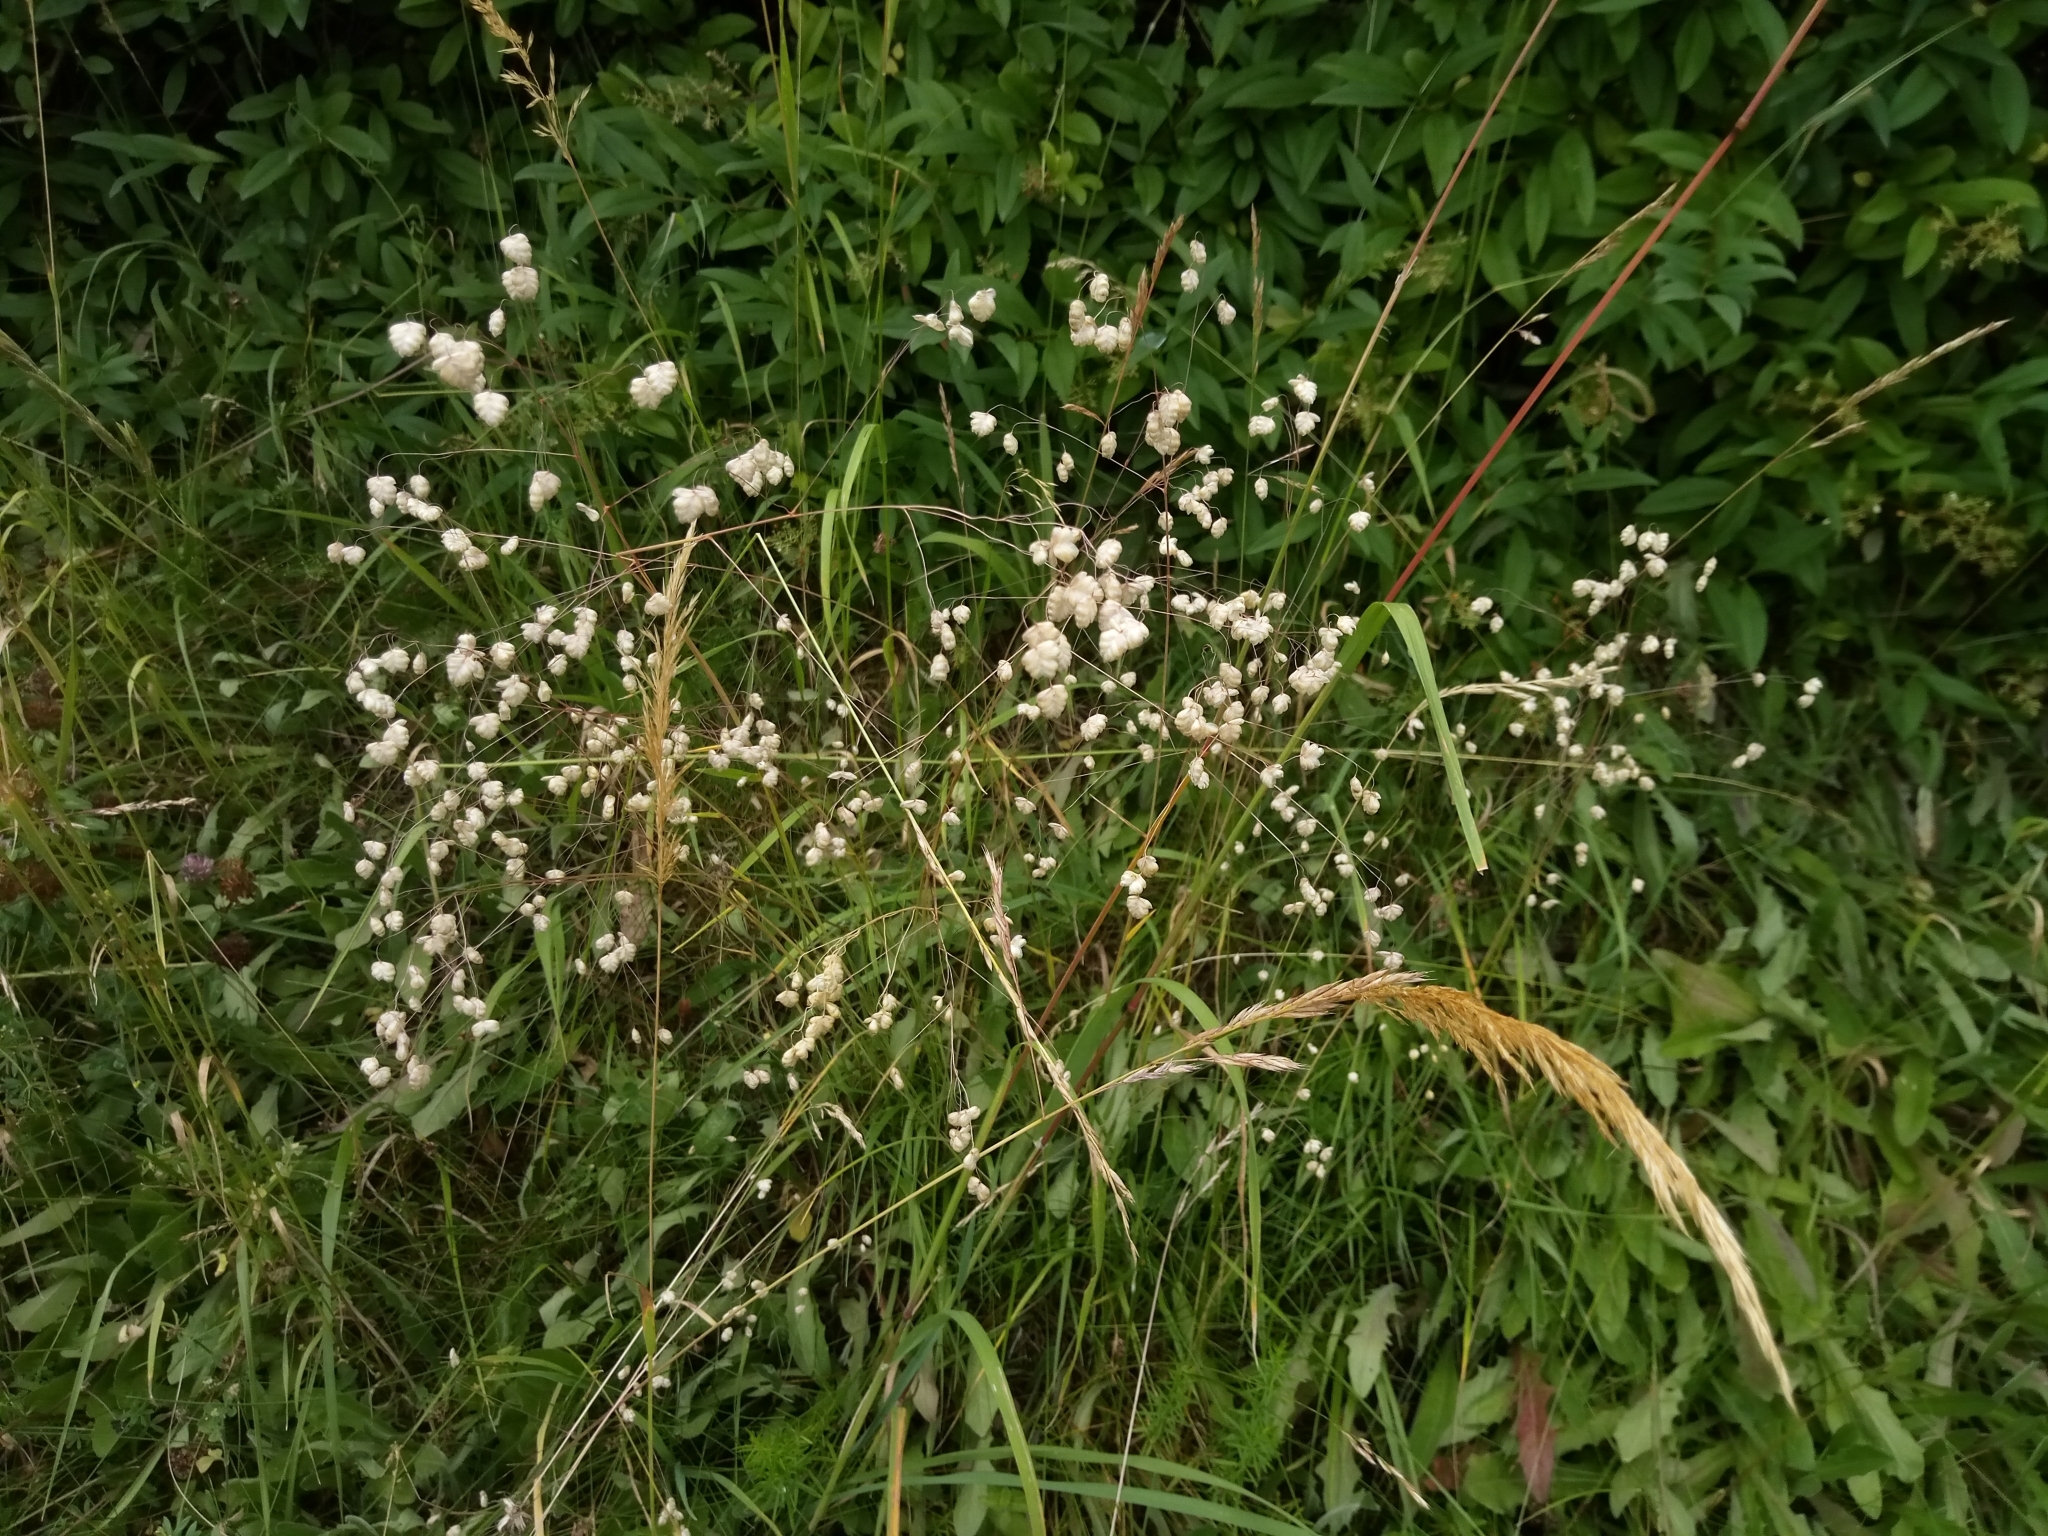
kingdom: Plantae
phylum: Tracheophyta
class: Liliopsida
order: Poales
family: Poaceae
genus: Briza
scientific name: Briza media
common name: Quaking grass
